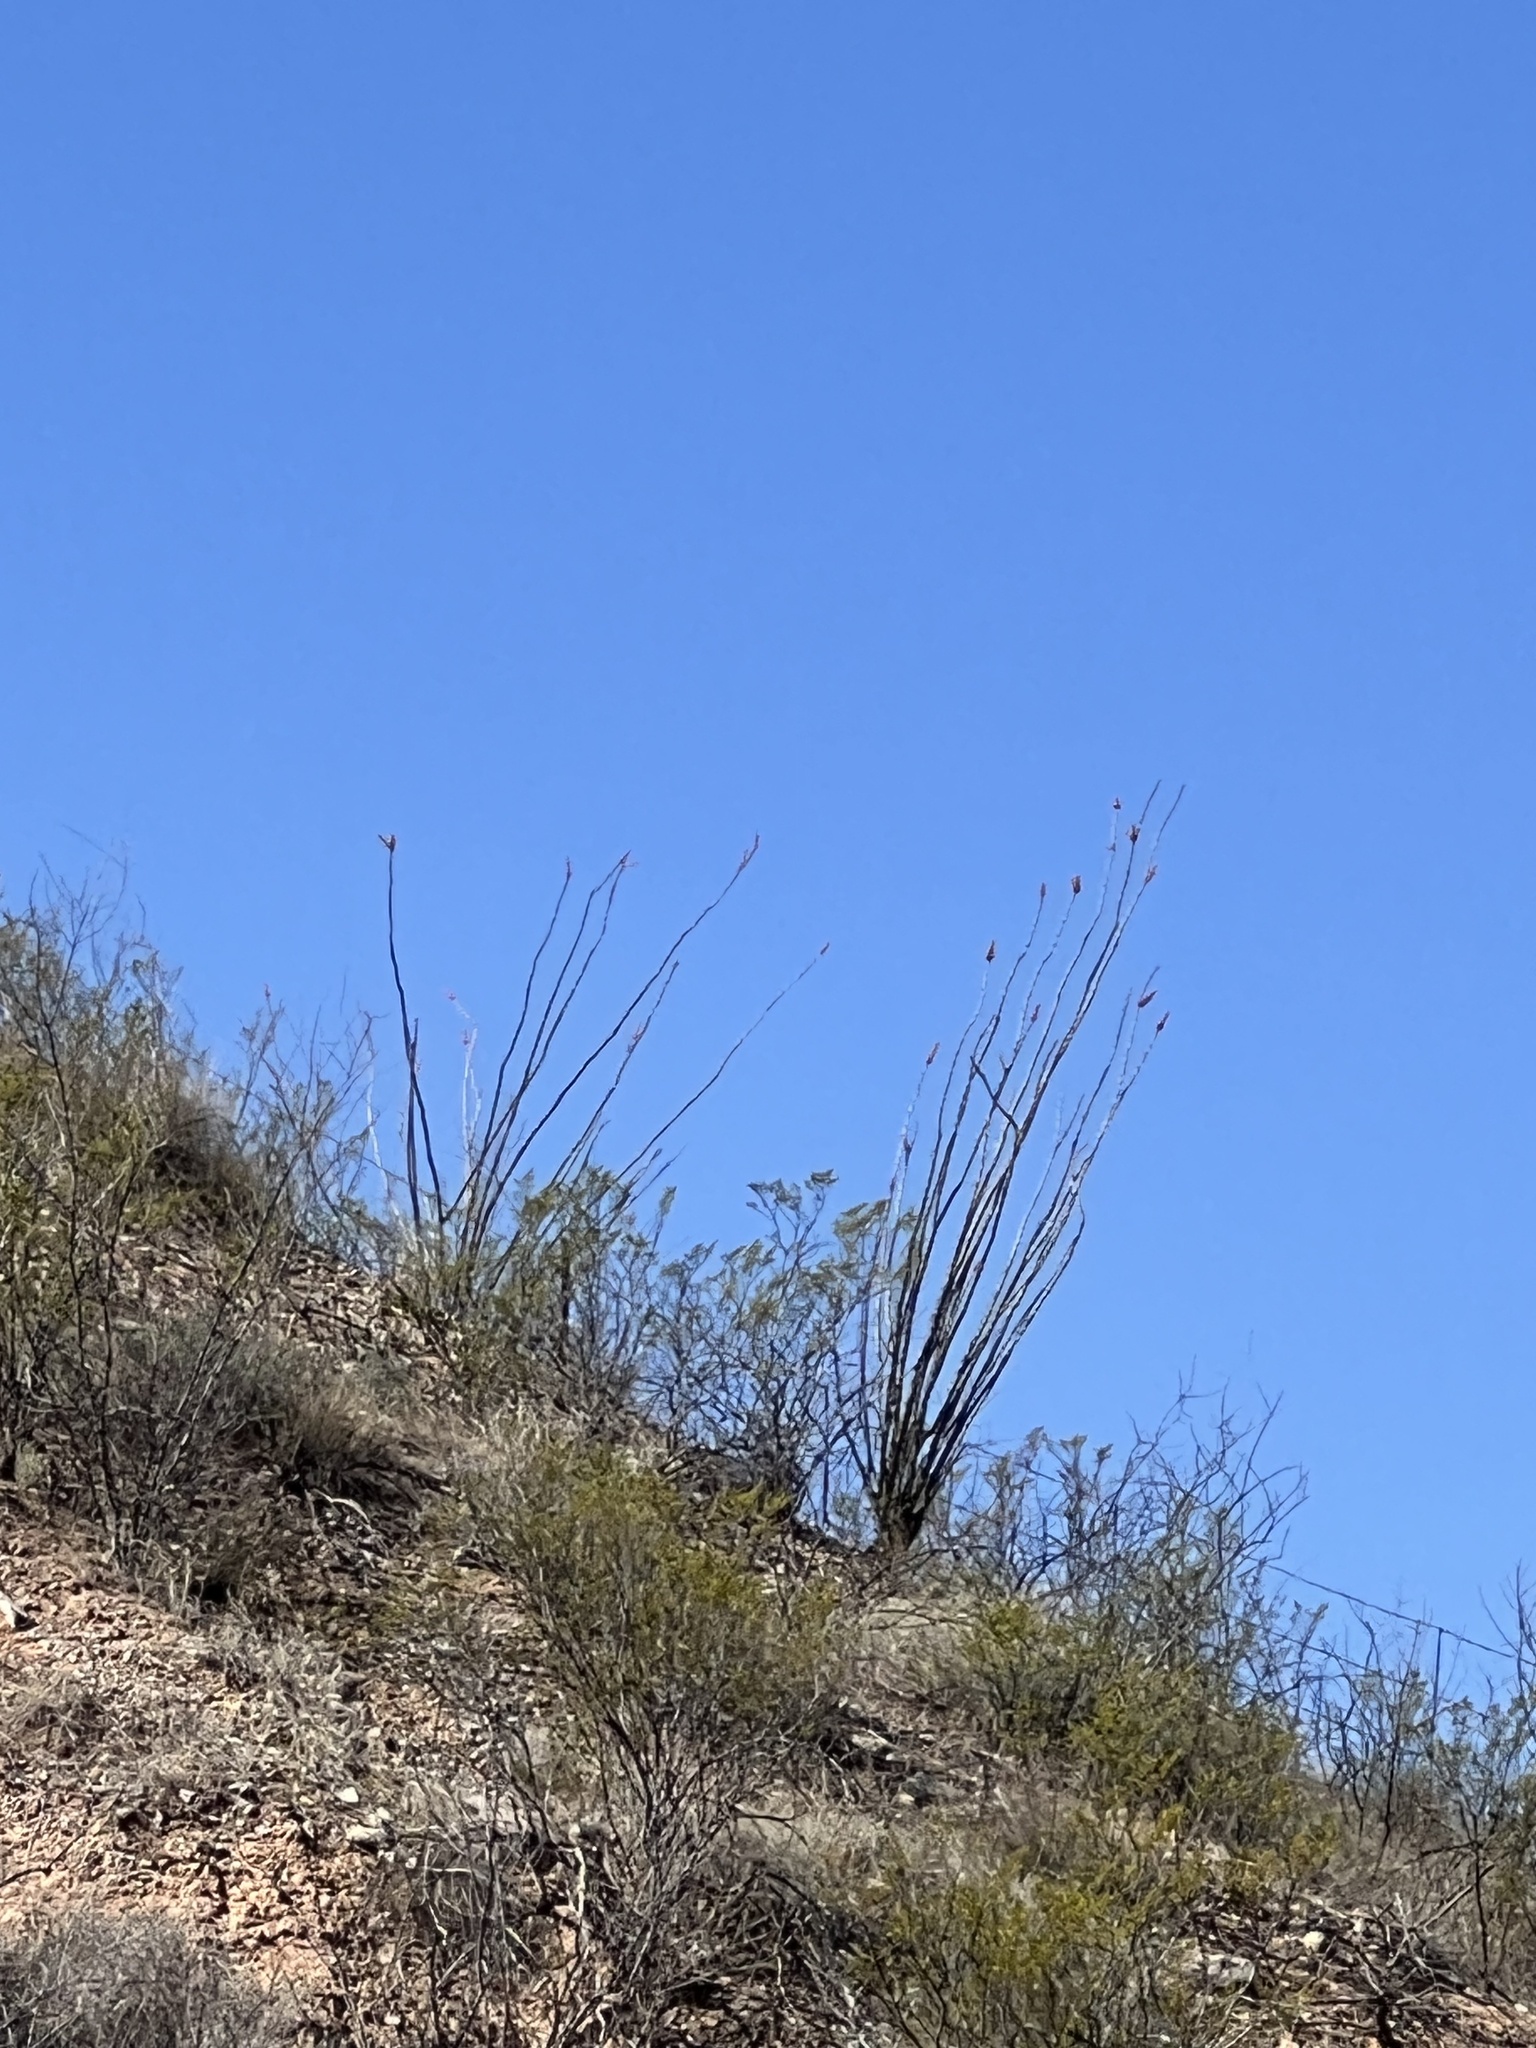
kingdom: Plantae
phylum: Tracheophyta
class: Magnoliopsida
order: Ericales
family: Fouquieriaceae
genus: Fouquieria
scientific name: Fouquieria splendens
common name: Vine-cactus
